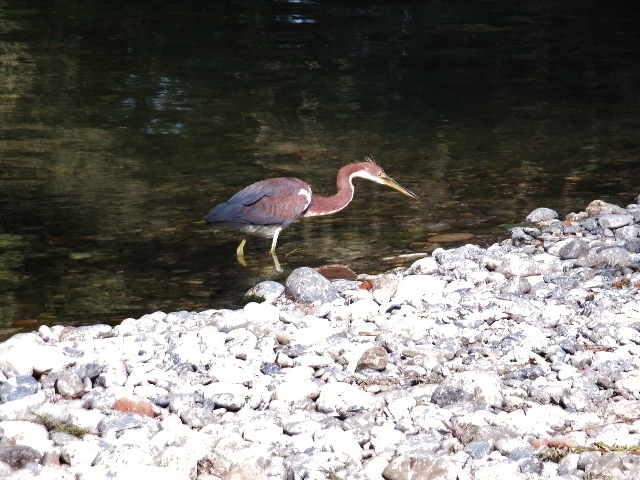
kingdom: Animalia
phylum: Chordata
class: Aves
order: Pelecaniformes
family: Ardeidae
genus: Egretta
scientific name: Egretta tricolor
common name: Tricolored heron
